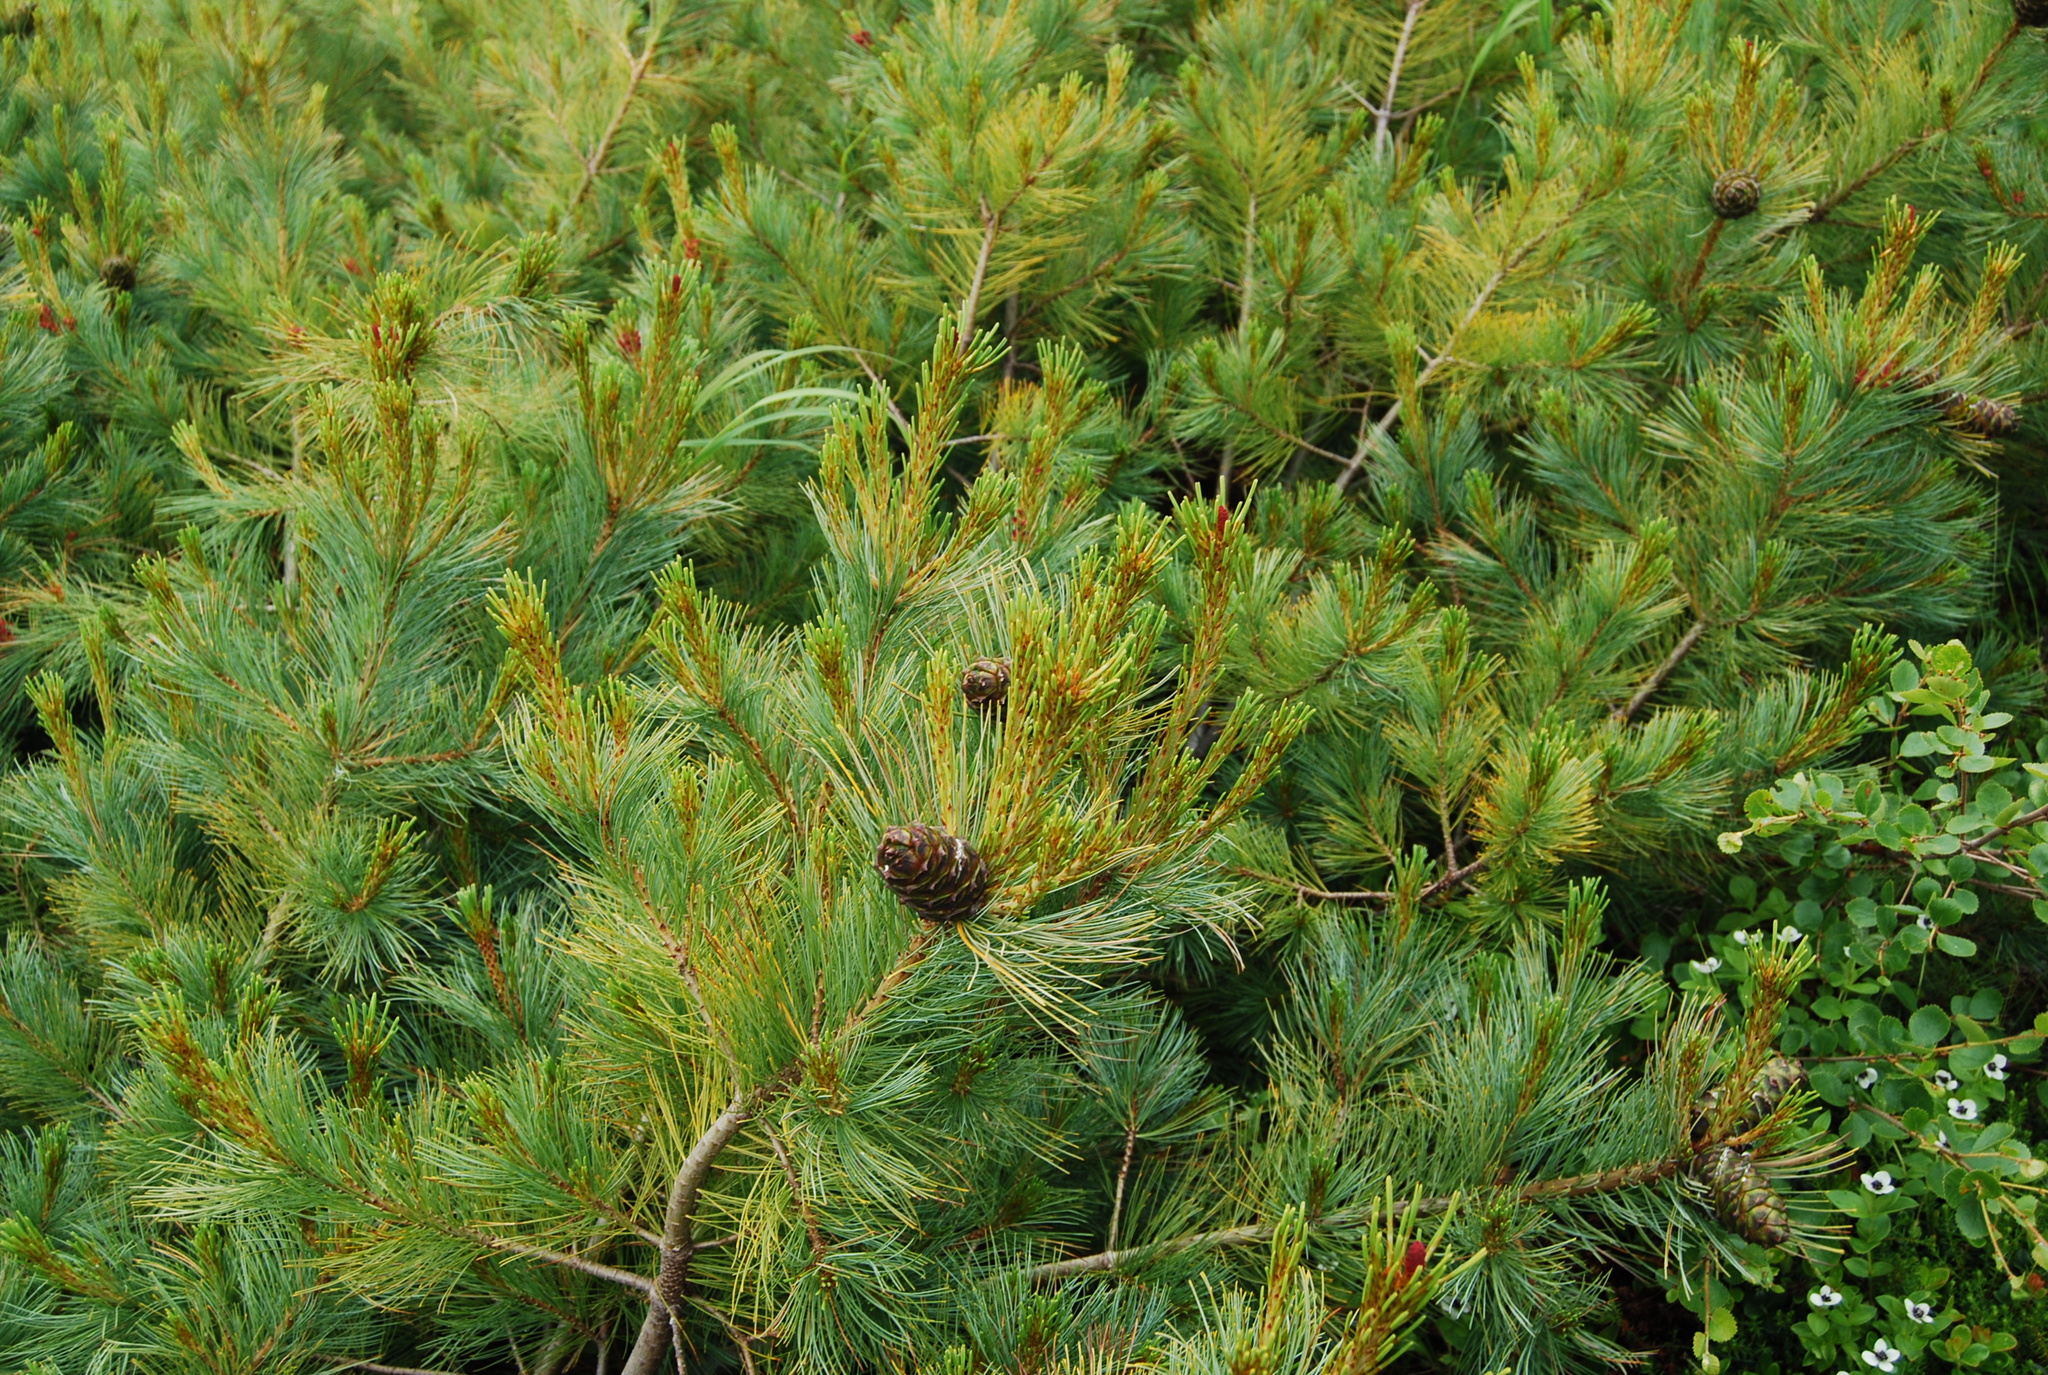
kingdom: Plantae
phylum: Tracheophyta
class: Pinopsida
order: Pinales
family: Pinaceae
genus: Pinus
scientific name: Pinus pumila
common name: Dwarf siberian pine
